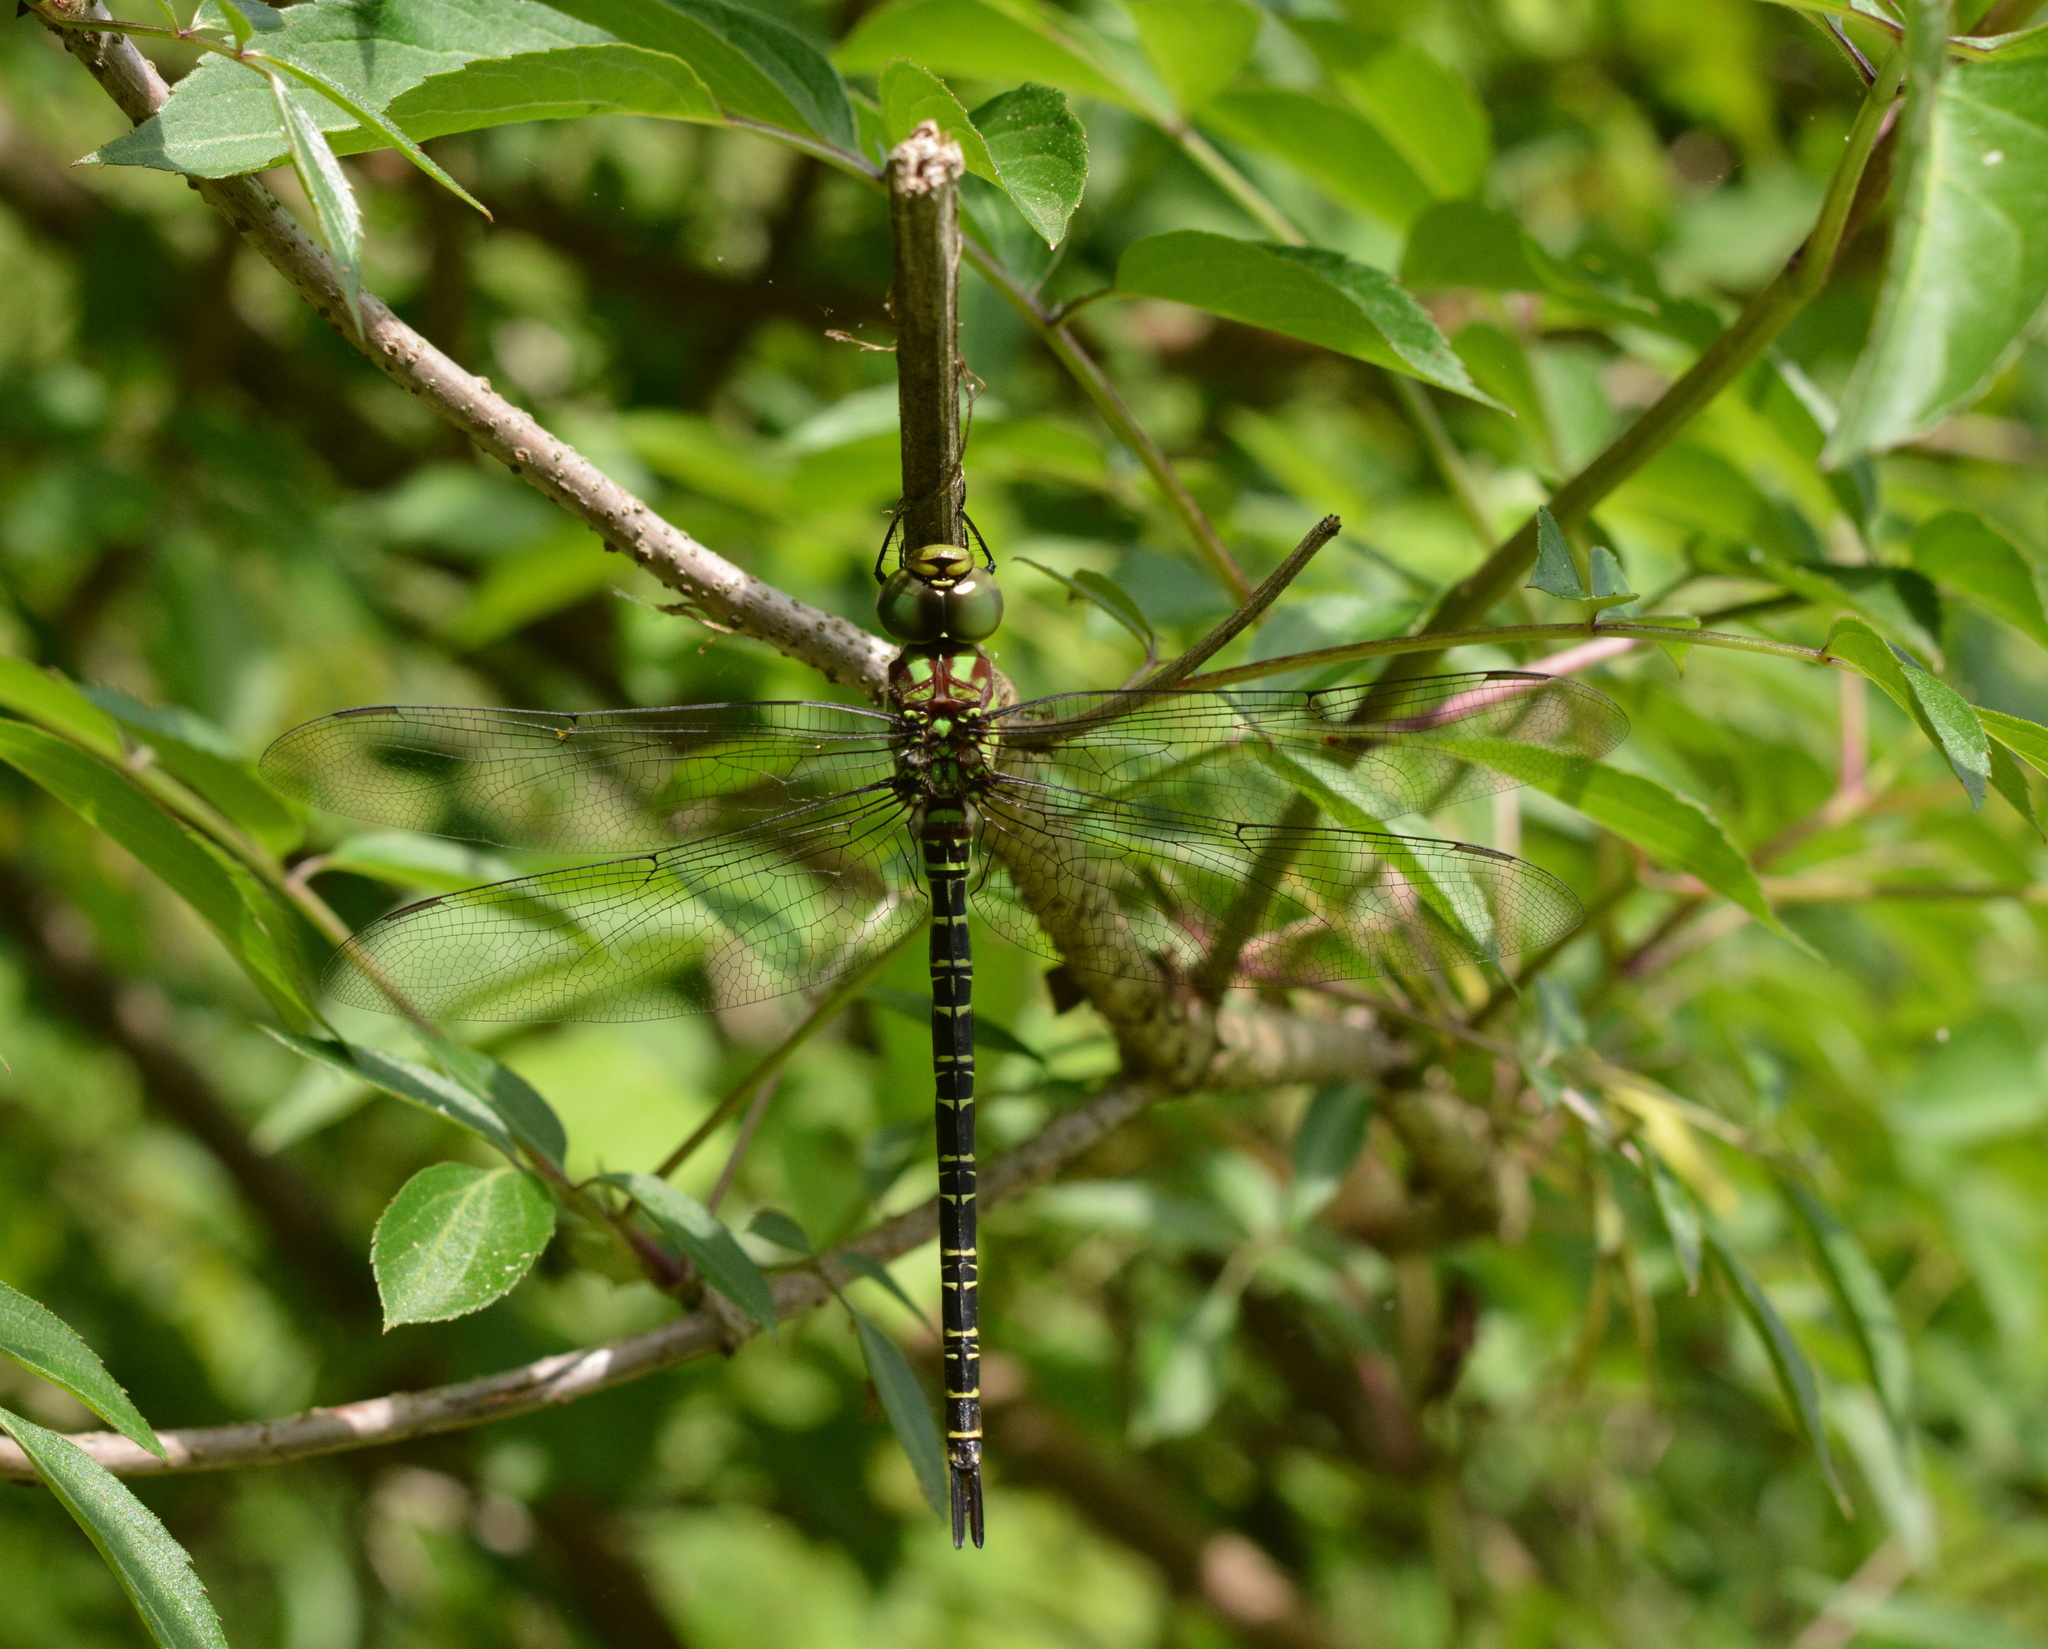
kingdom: Animalia
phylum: Arthropoda
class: Insecta
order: Odonata
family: Aeshnidae
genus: Coryphaeschna
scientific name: Coryphaeschna ingens
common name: Regal darner
